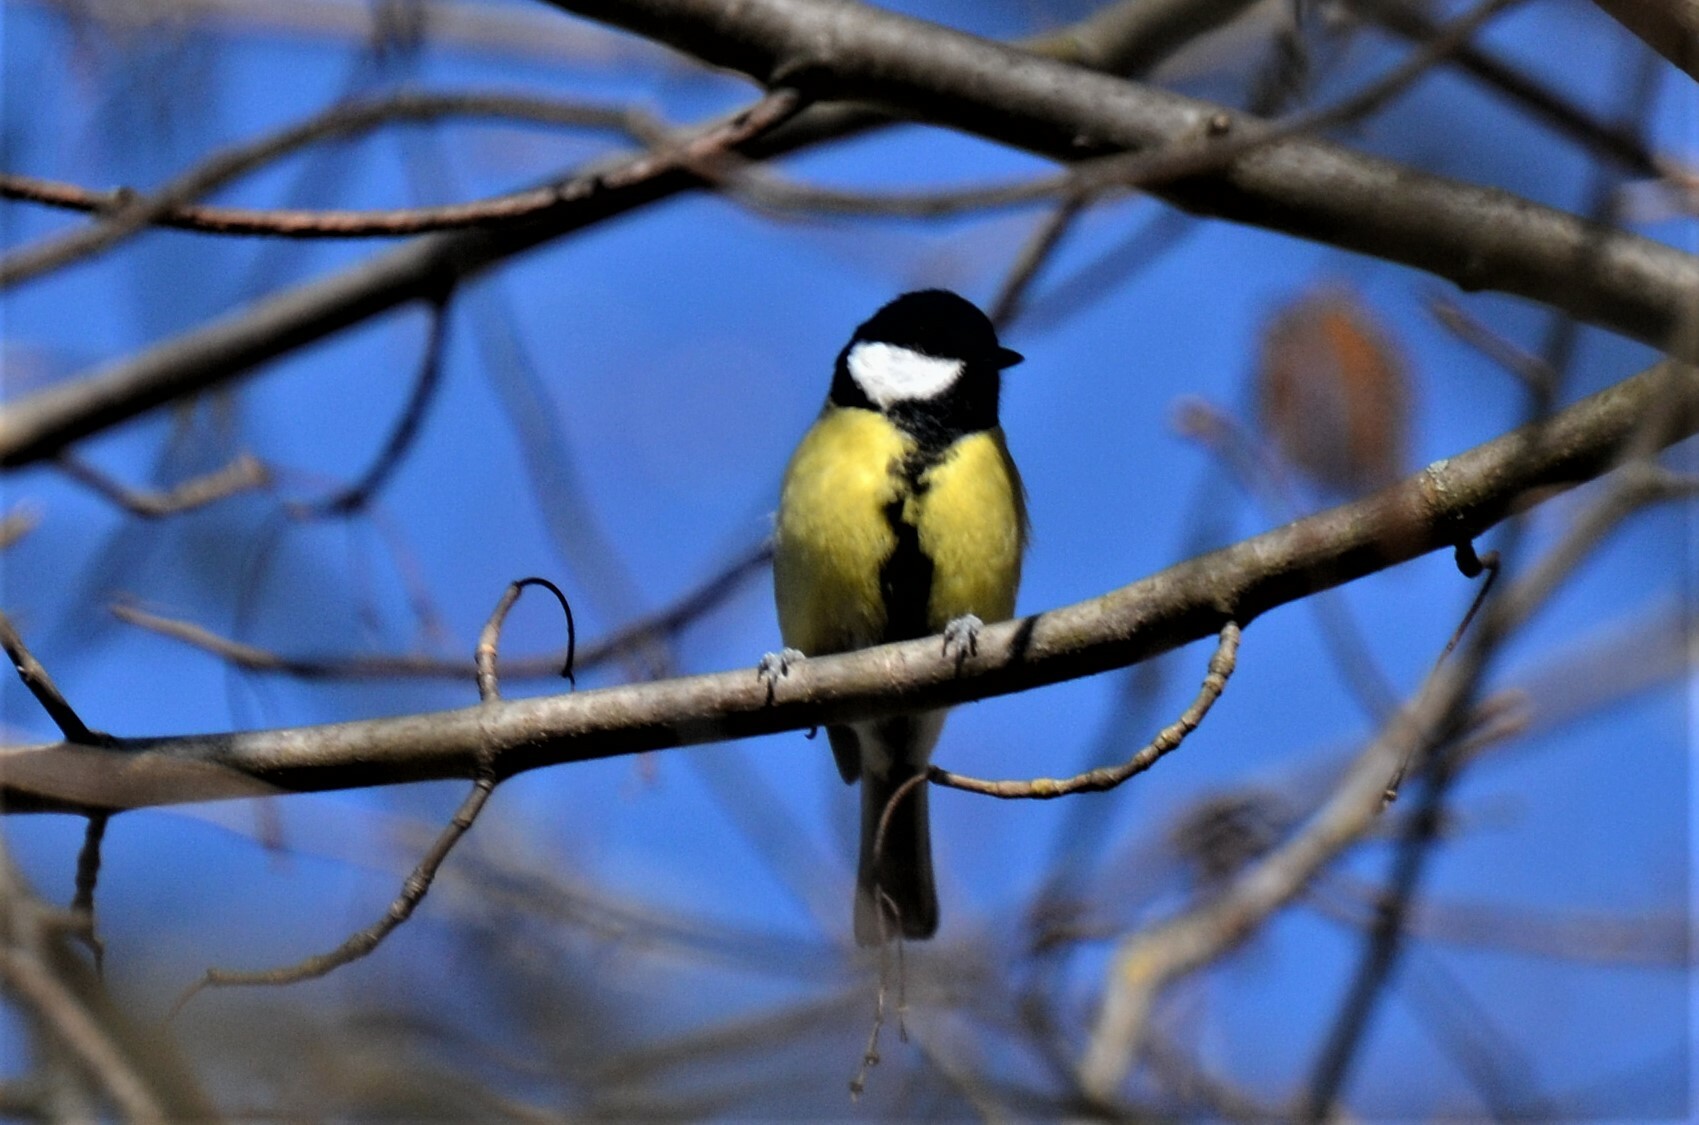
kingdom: Animalia
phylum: Chordata
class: Aves
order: Passeriformes
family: Paridae
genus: Parus
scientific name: Parus major
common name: Great tit
